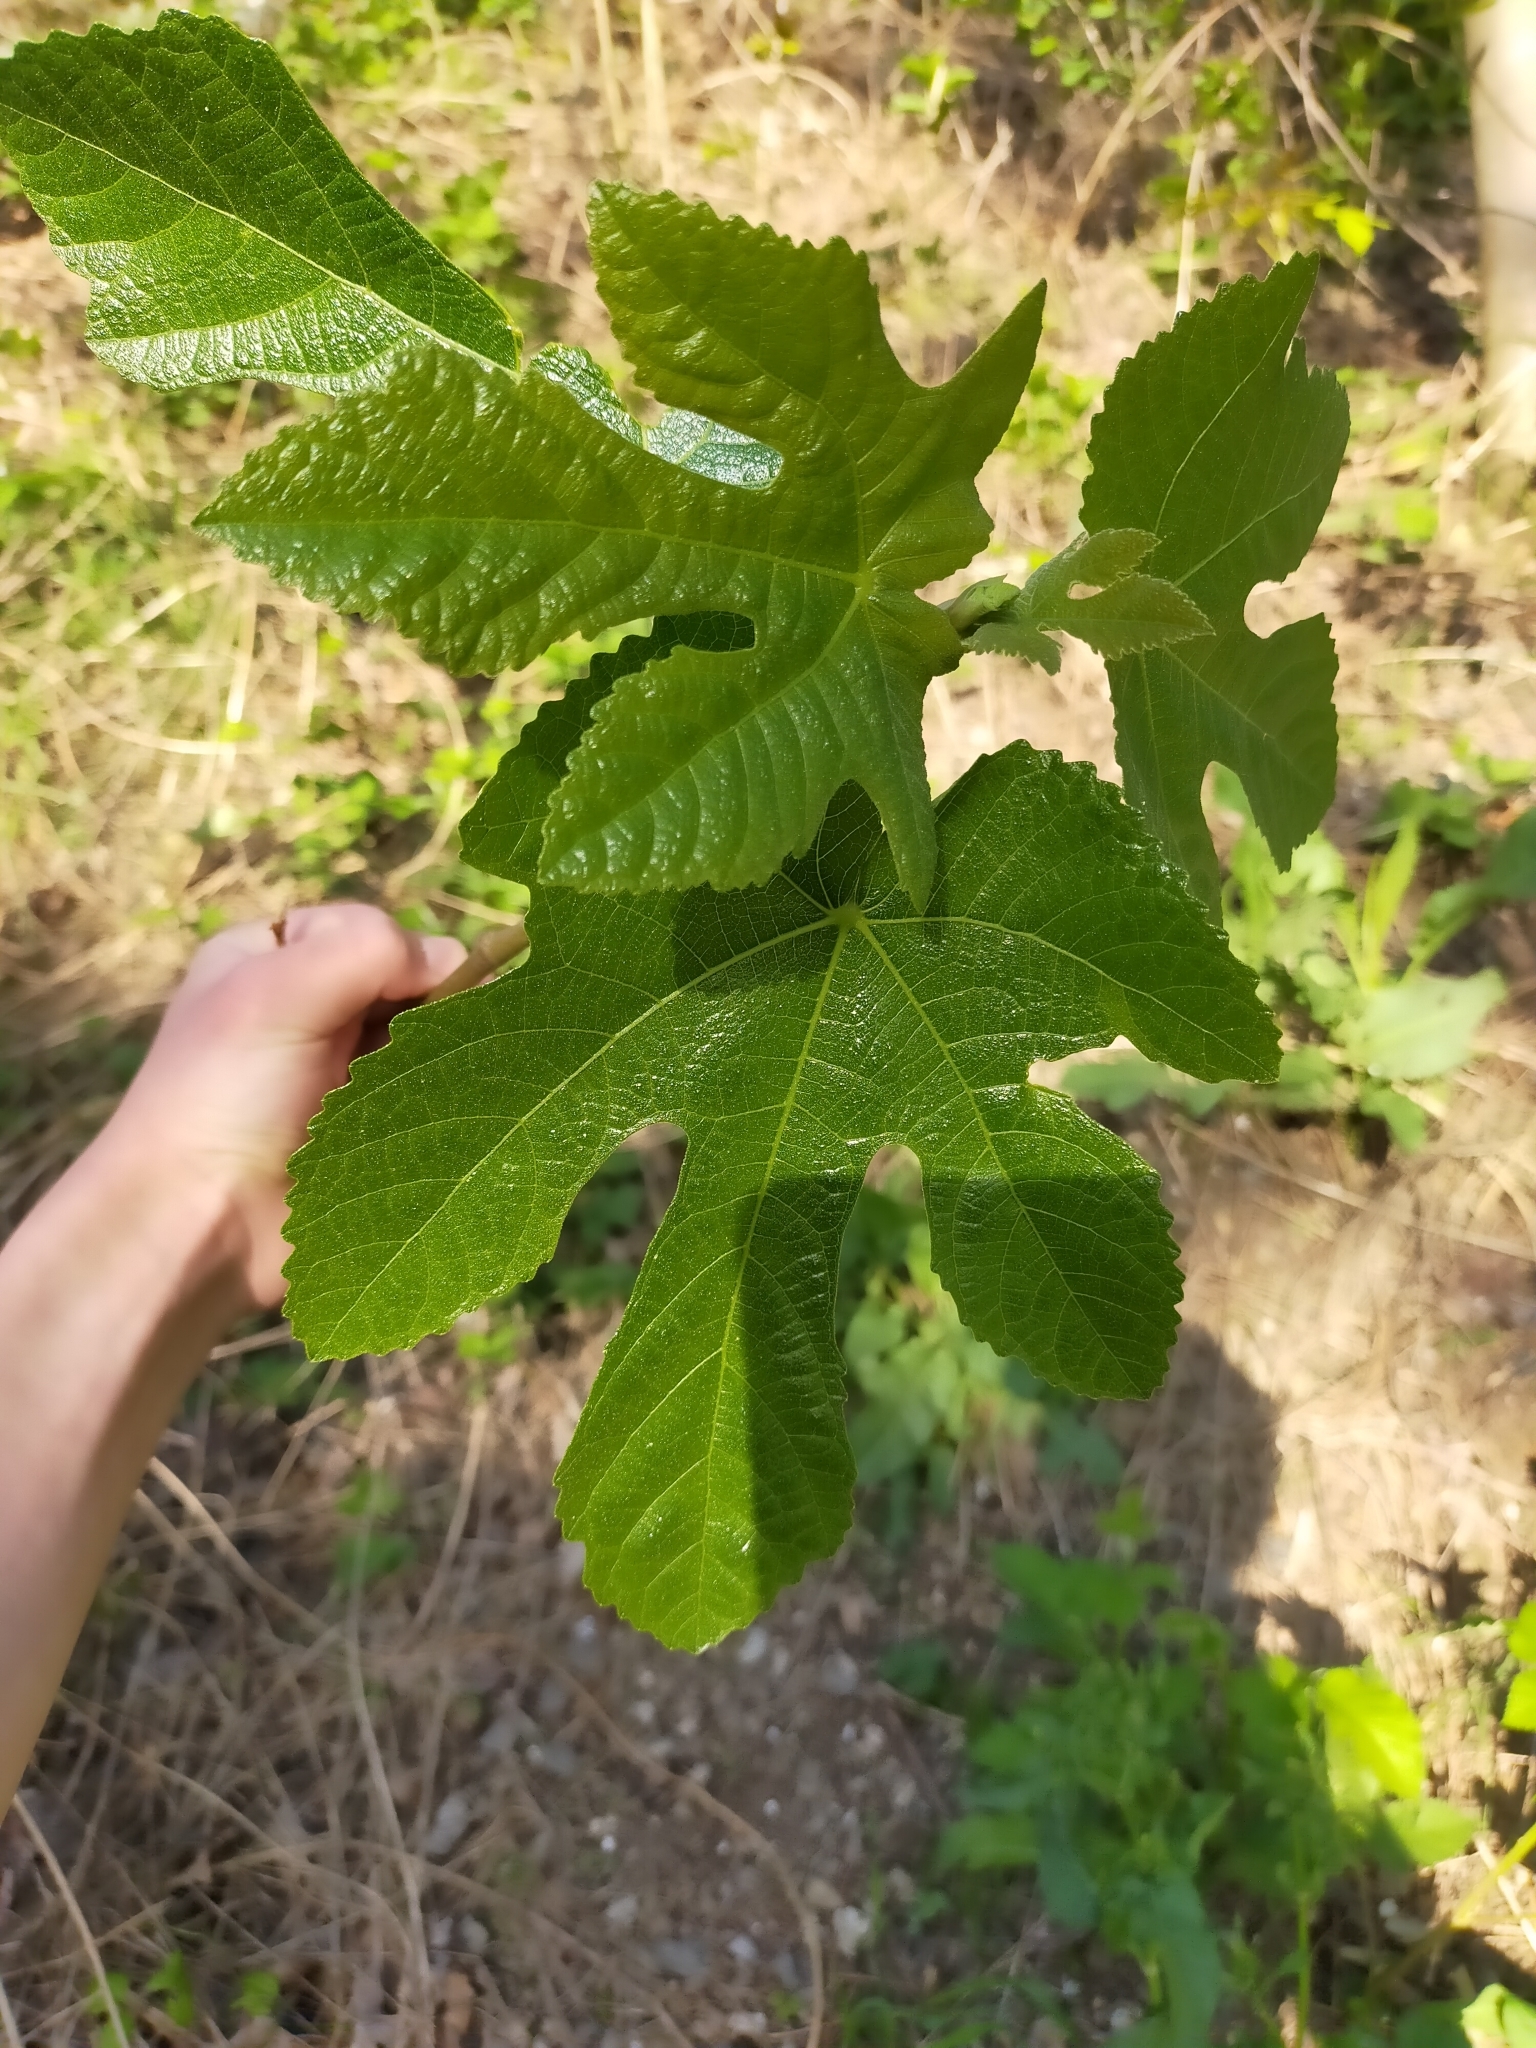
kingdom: Plantae
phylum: Tracheophyta
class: Magnoliopsida
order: Rosales
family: Moraceae
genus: Ficus
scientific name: Ficus carica
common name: Fig
